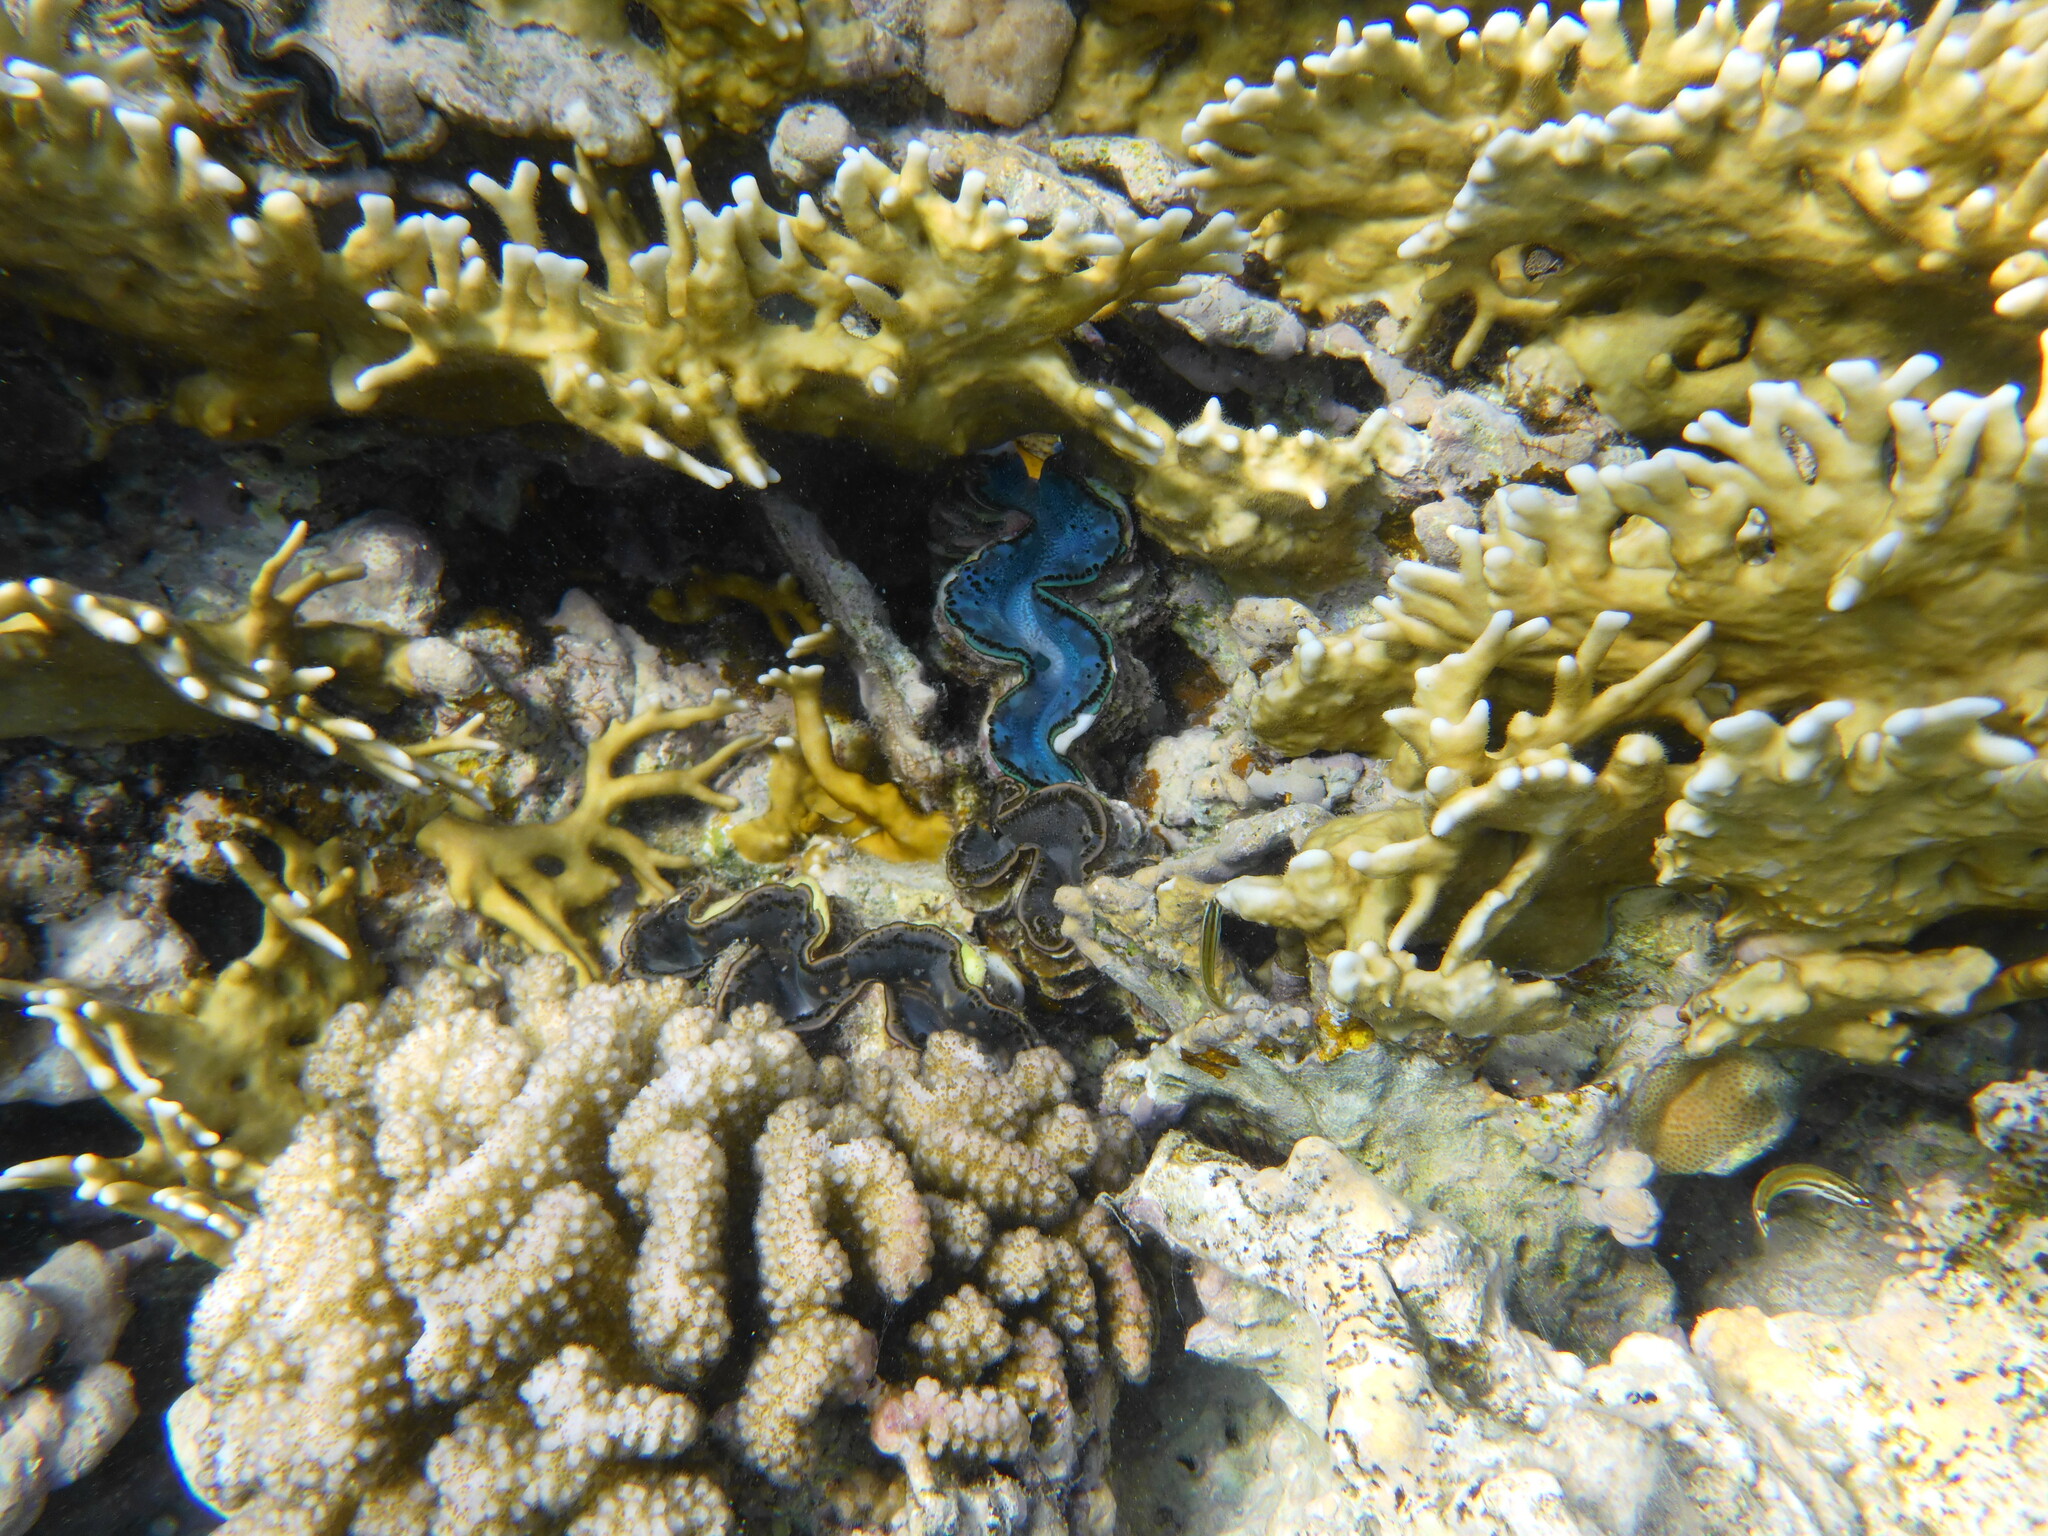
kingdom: Animalia
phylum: Mollusca
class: Bivalvia
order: Cardiida
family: Cardiidae
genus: Tridacna
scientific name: Tridacna maxima
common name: Small giant clam
